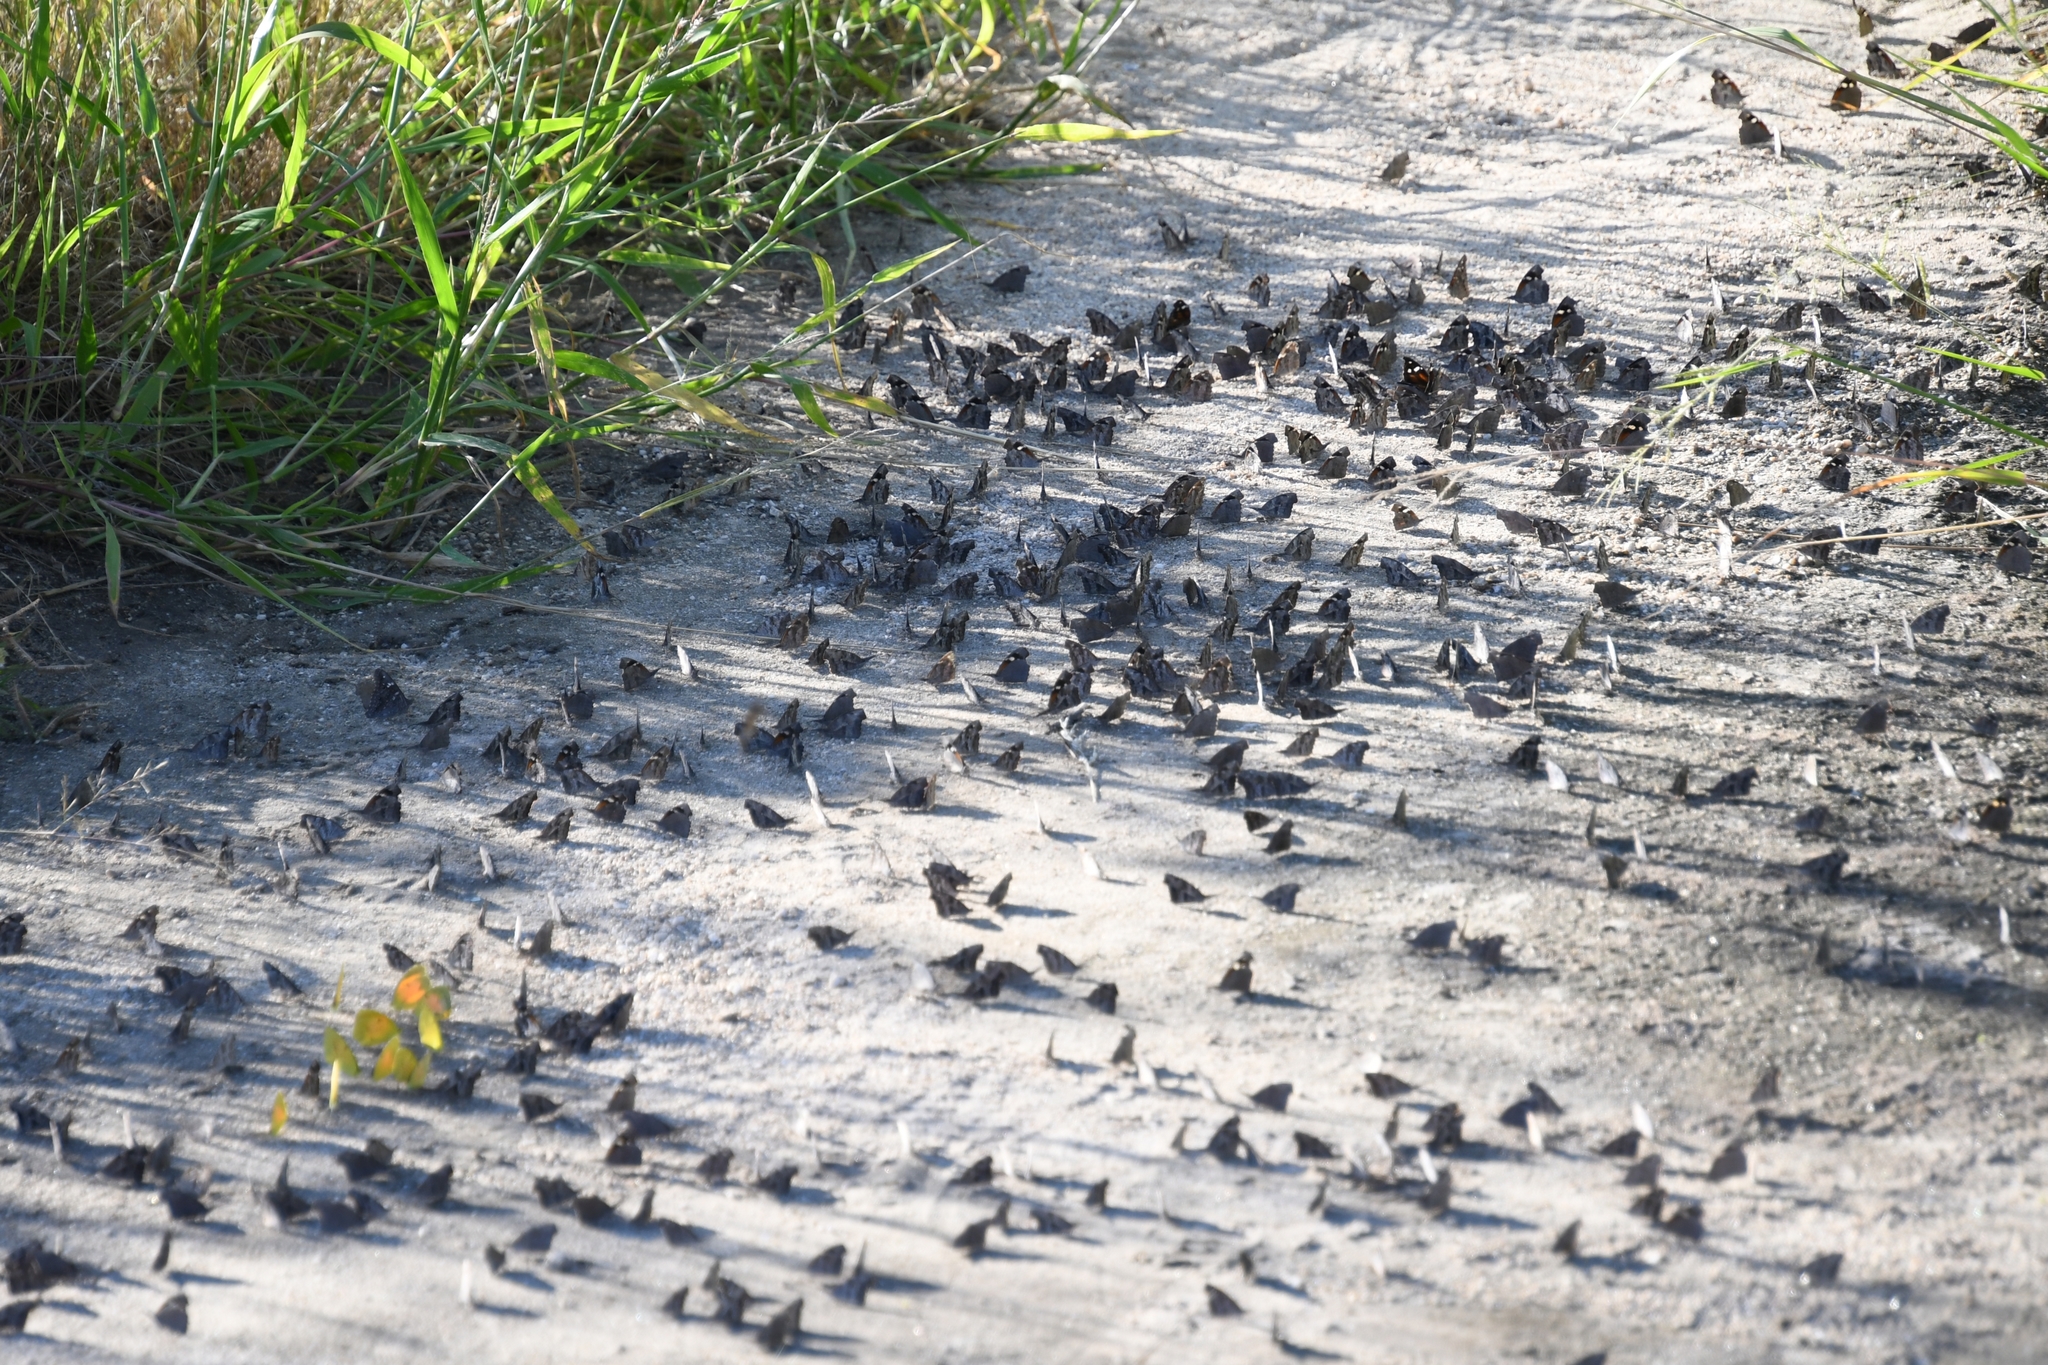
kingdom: Animalia
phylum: Arthropoda
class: Insecta
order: Lepidoptera
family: Nymphalidae
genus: Libytheana
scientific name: Libytheana carinenta
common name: American snout
